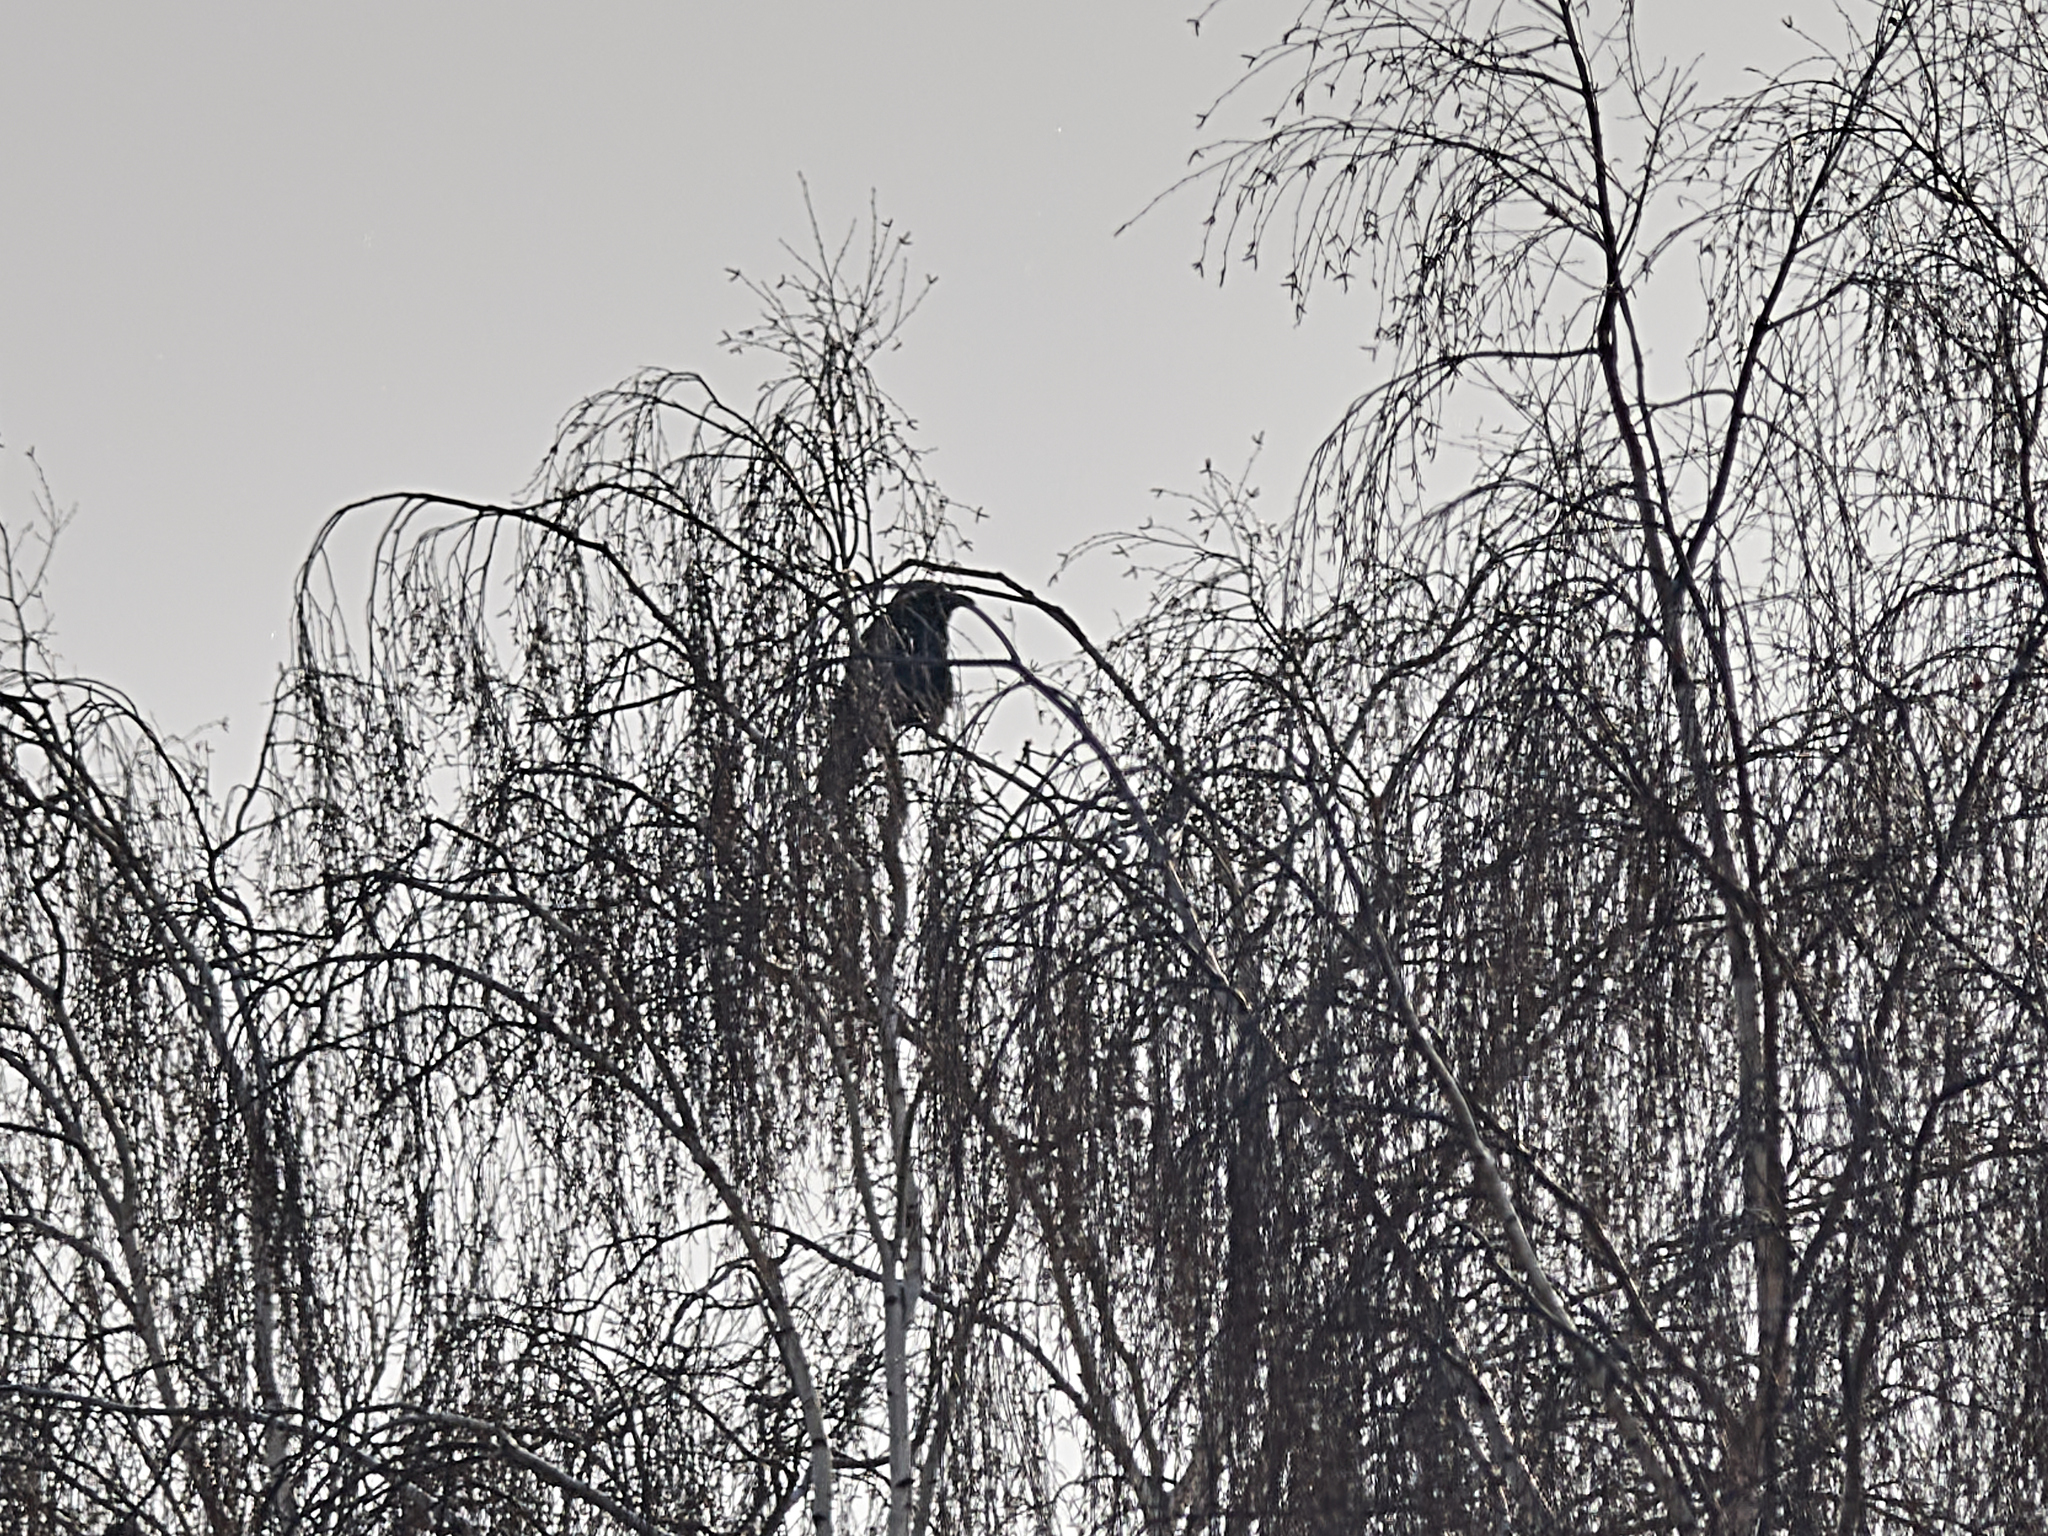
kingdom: Animalia
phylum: Chordata
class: Aves
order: Passeriformes
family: Corvidae
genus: Corvus
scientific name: Corvus corax
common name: Common raven
